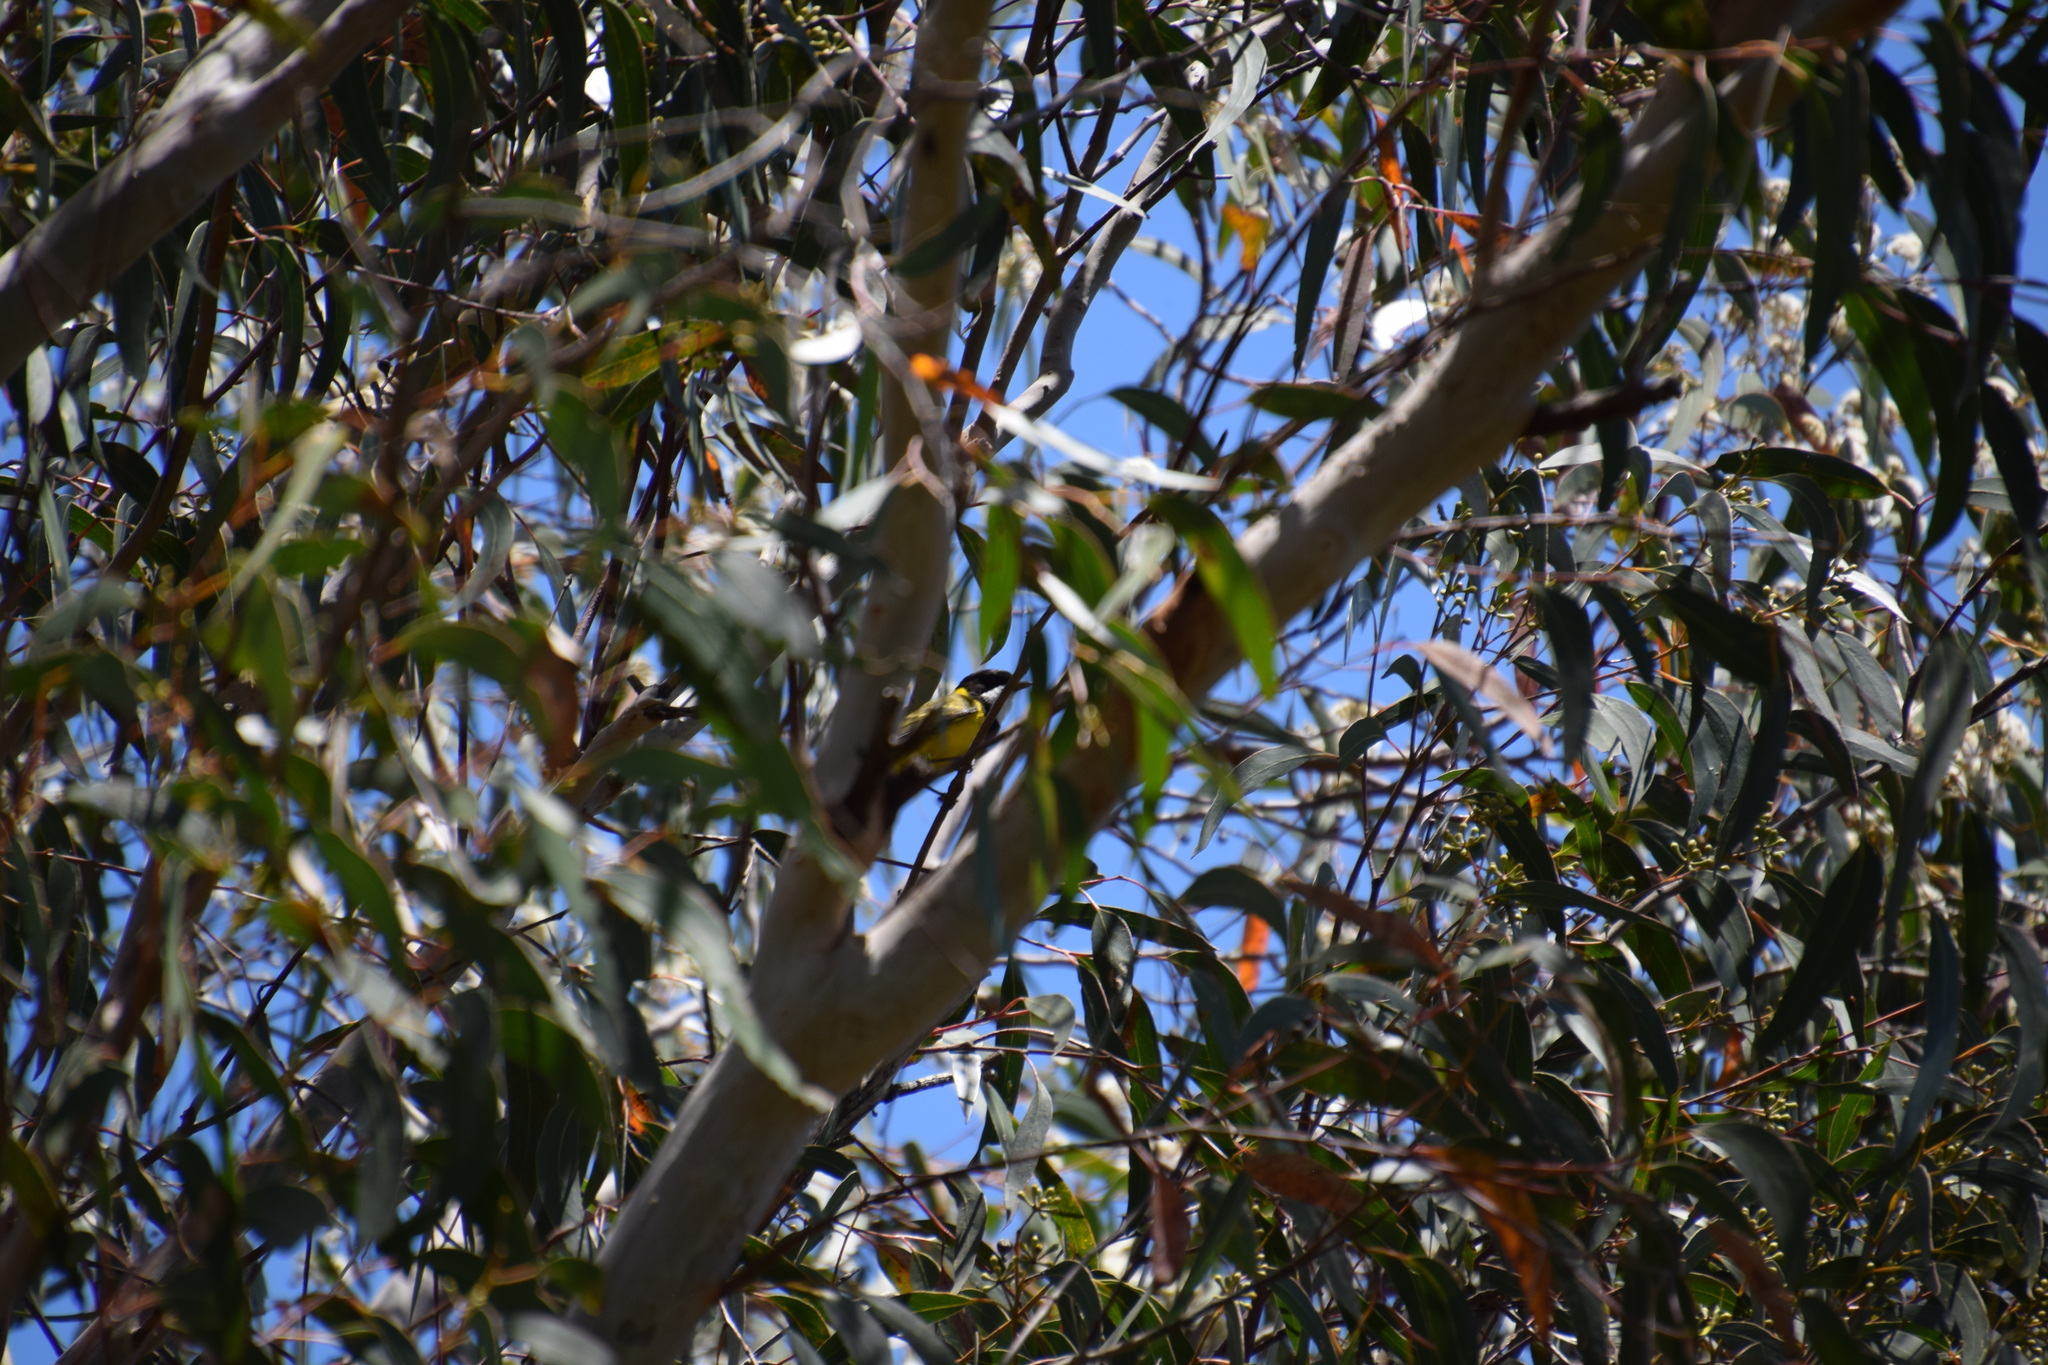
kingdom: Animalia
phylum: Chordata
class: Aves
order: Passeriformes
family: Pachycephalidae
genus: Pachycephala
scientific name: Pachycephala pectoralis
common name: Australian golden whistler
